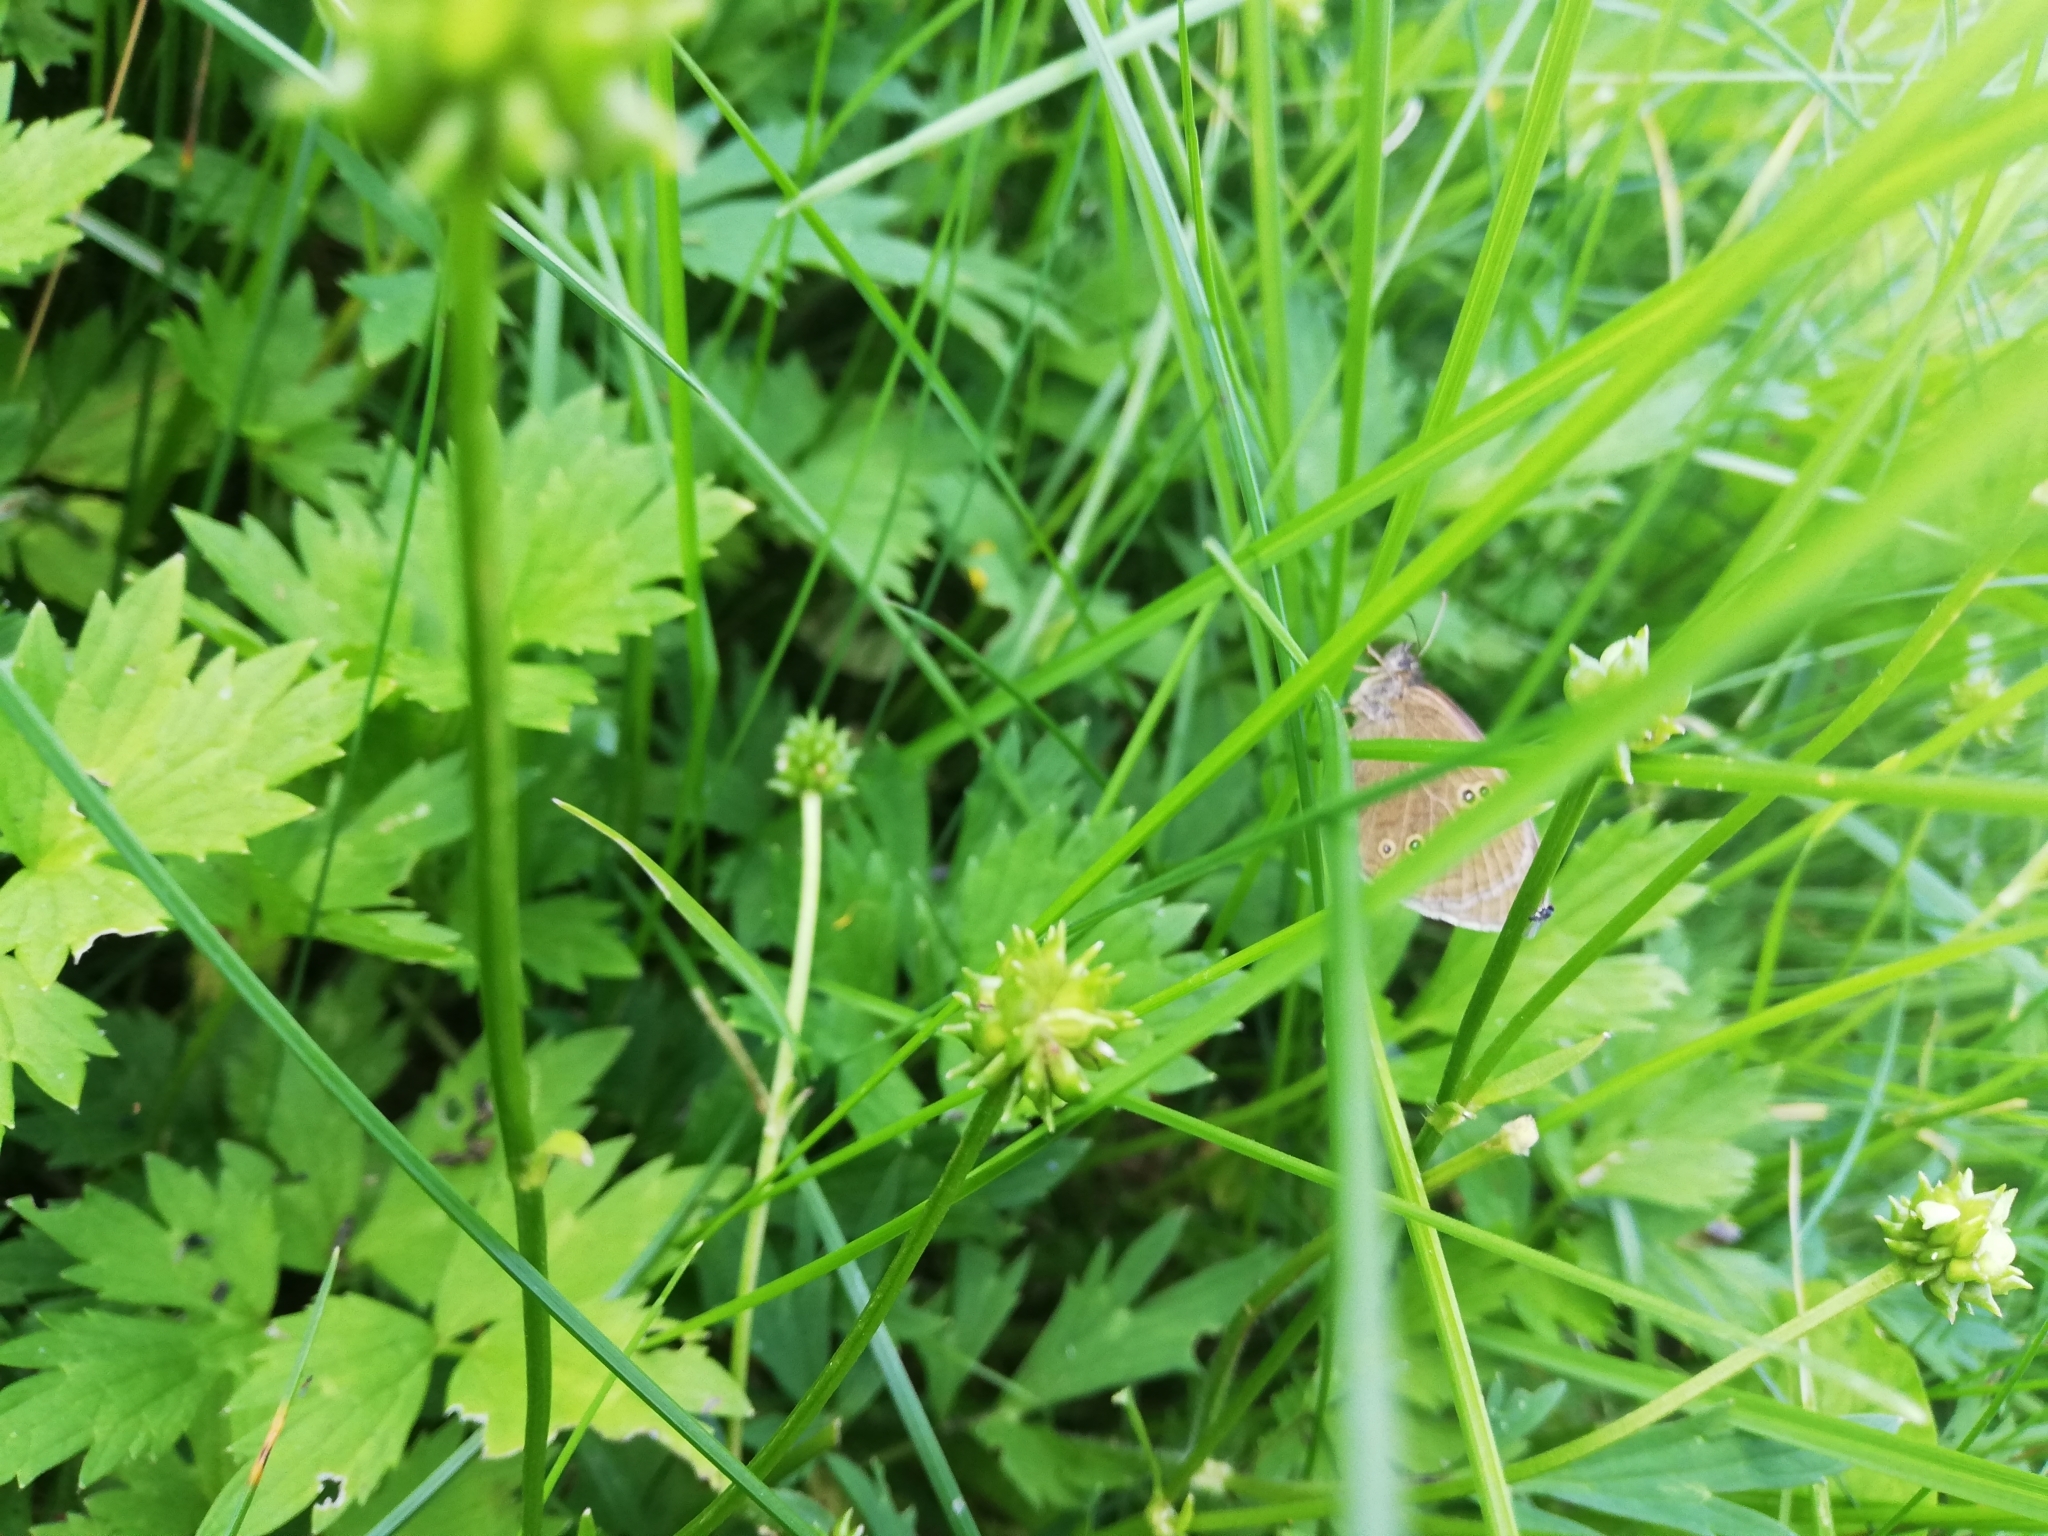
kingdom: Animalia
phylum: Arthropoda
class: Insecta
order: Lepidoptera
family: Nymphalidae
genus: Aphantopus
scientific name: Aphantopus hyperantus
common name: Ringlet
